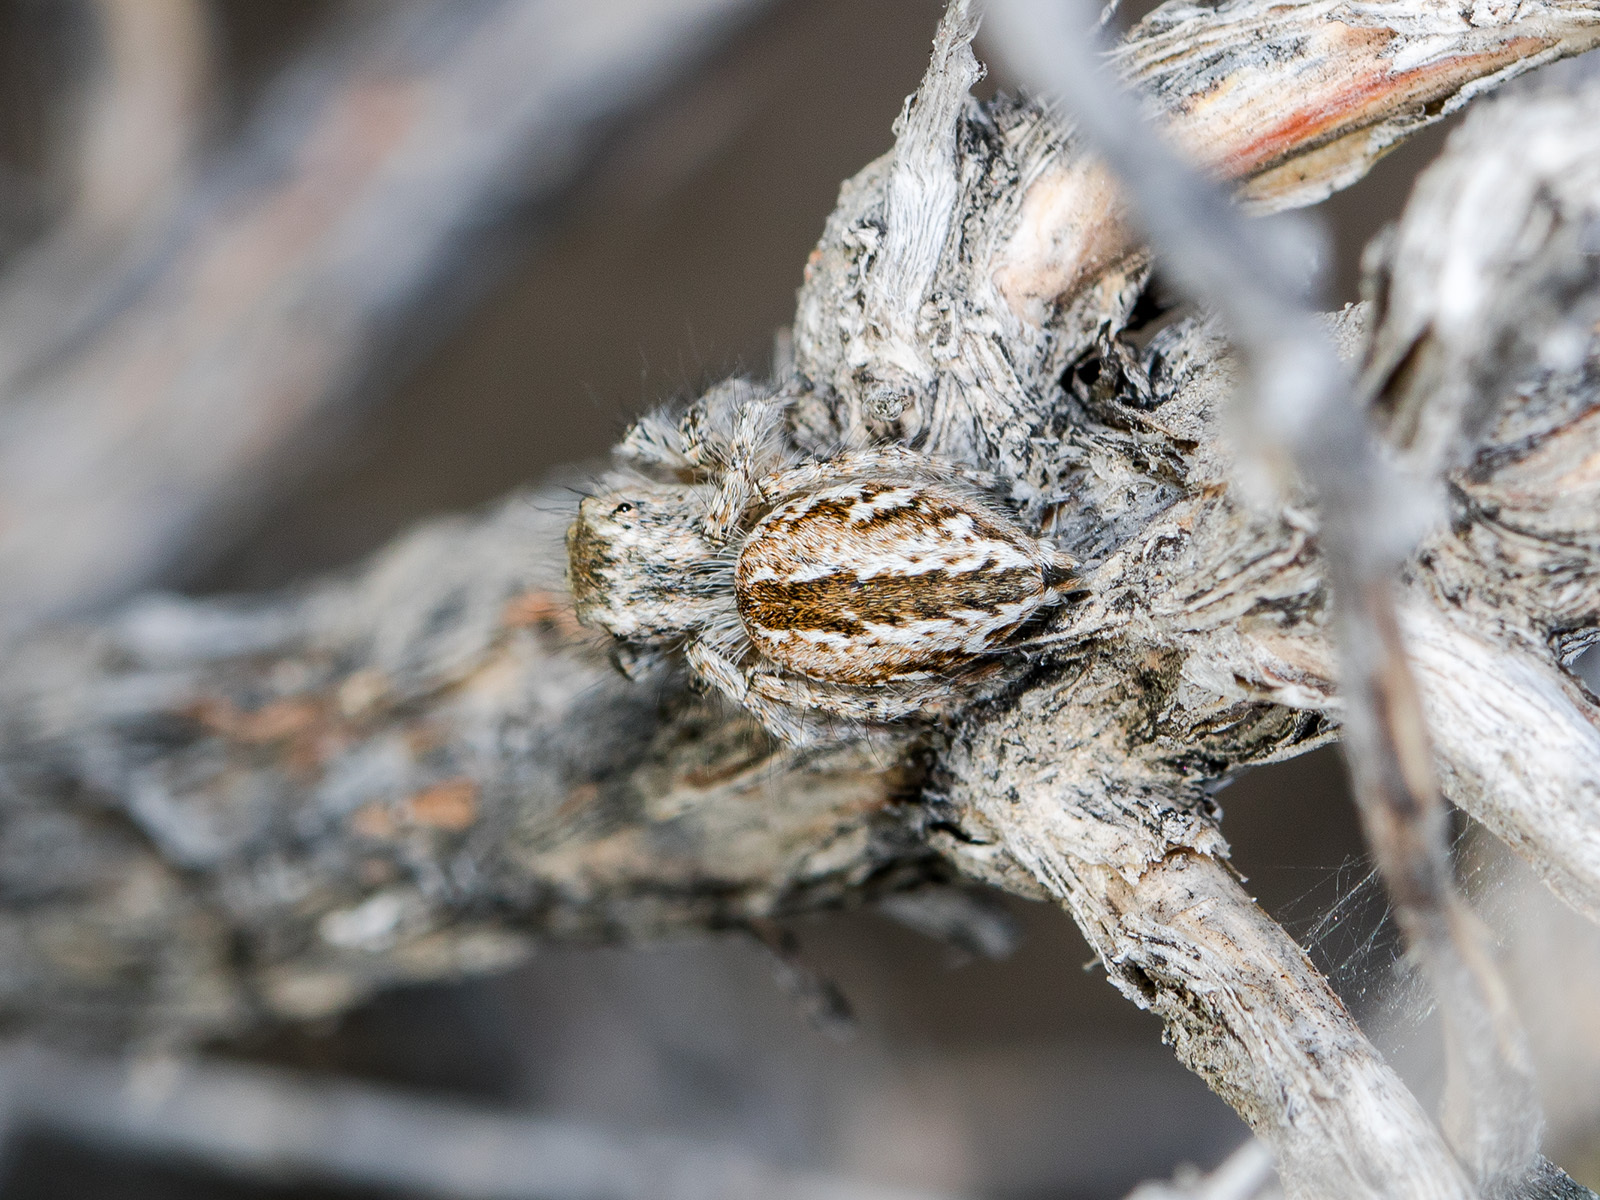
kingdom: Animalia
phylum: Arthropoda
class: Arachnida
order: Araneae
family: Salticidae
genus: Mogrus
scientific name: Mogrus larisae
